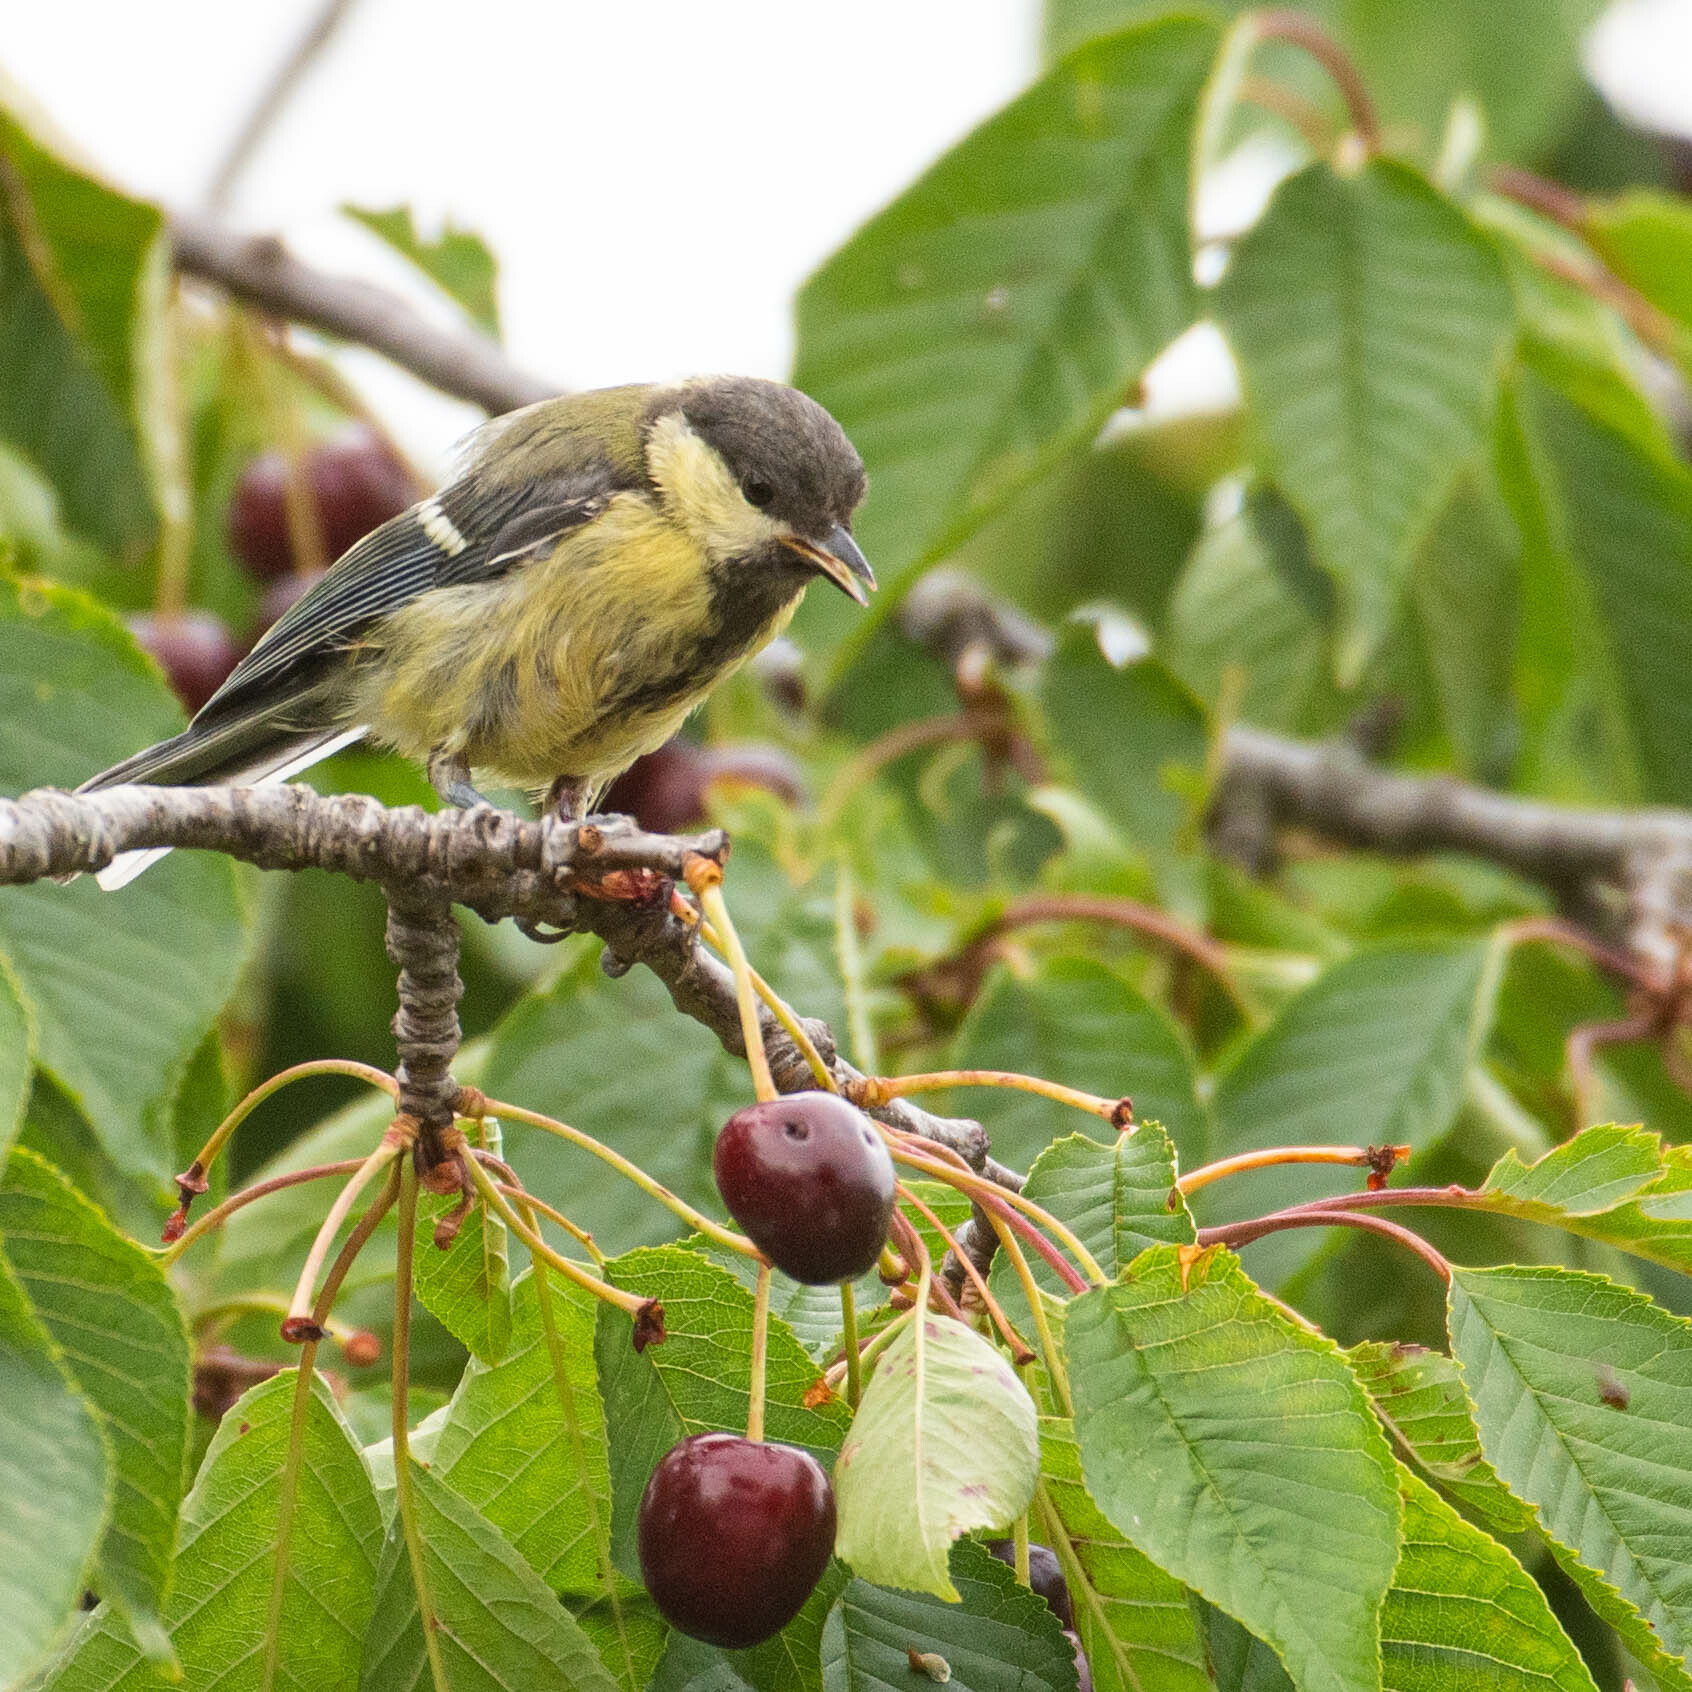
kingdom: Animalia
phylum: Chordata
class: Aves
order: Passeriformes
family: Paridae
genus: Parus
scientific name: Parus major
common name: Great tit
